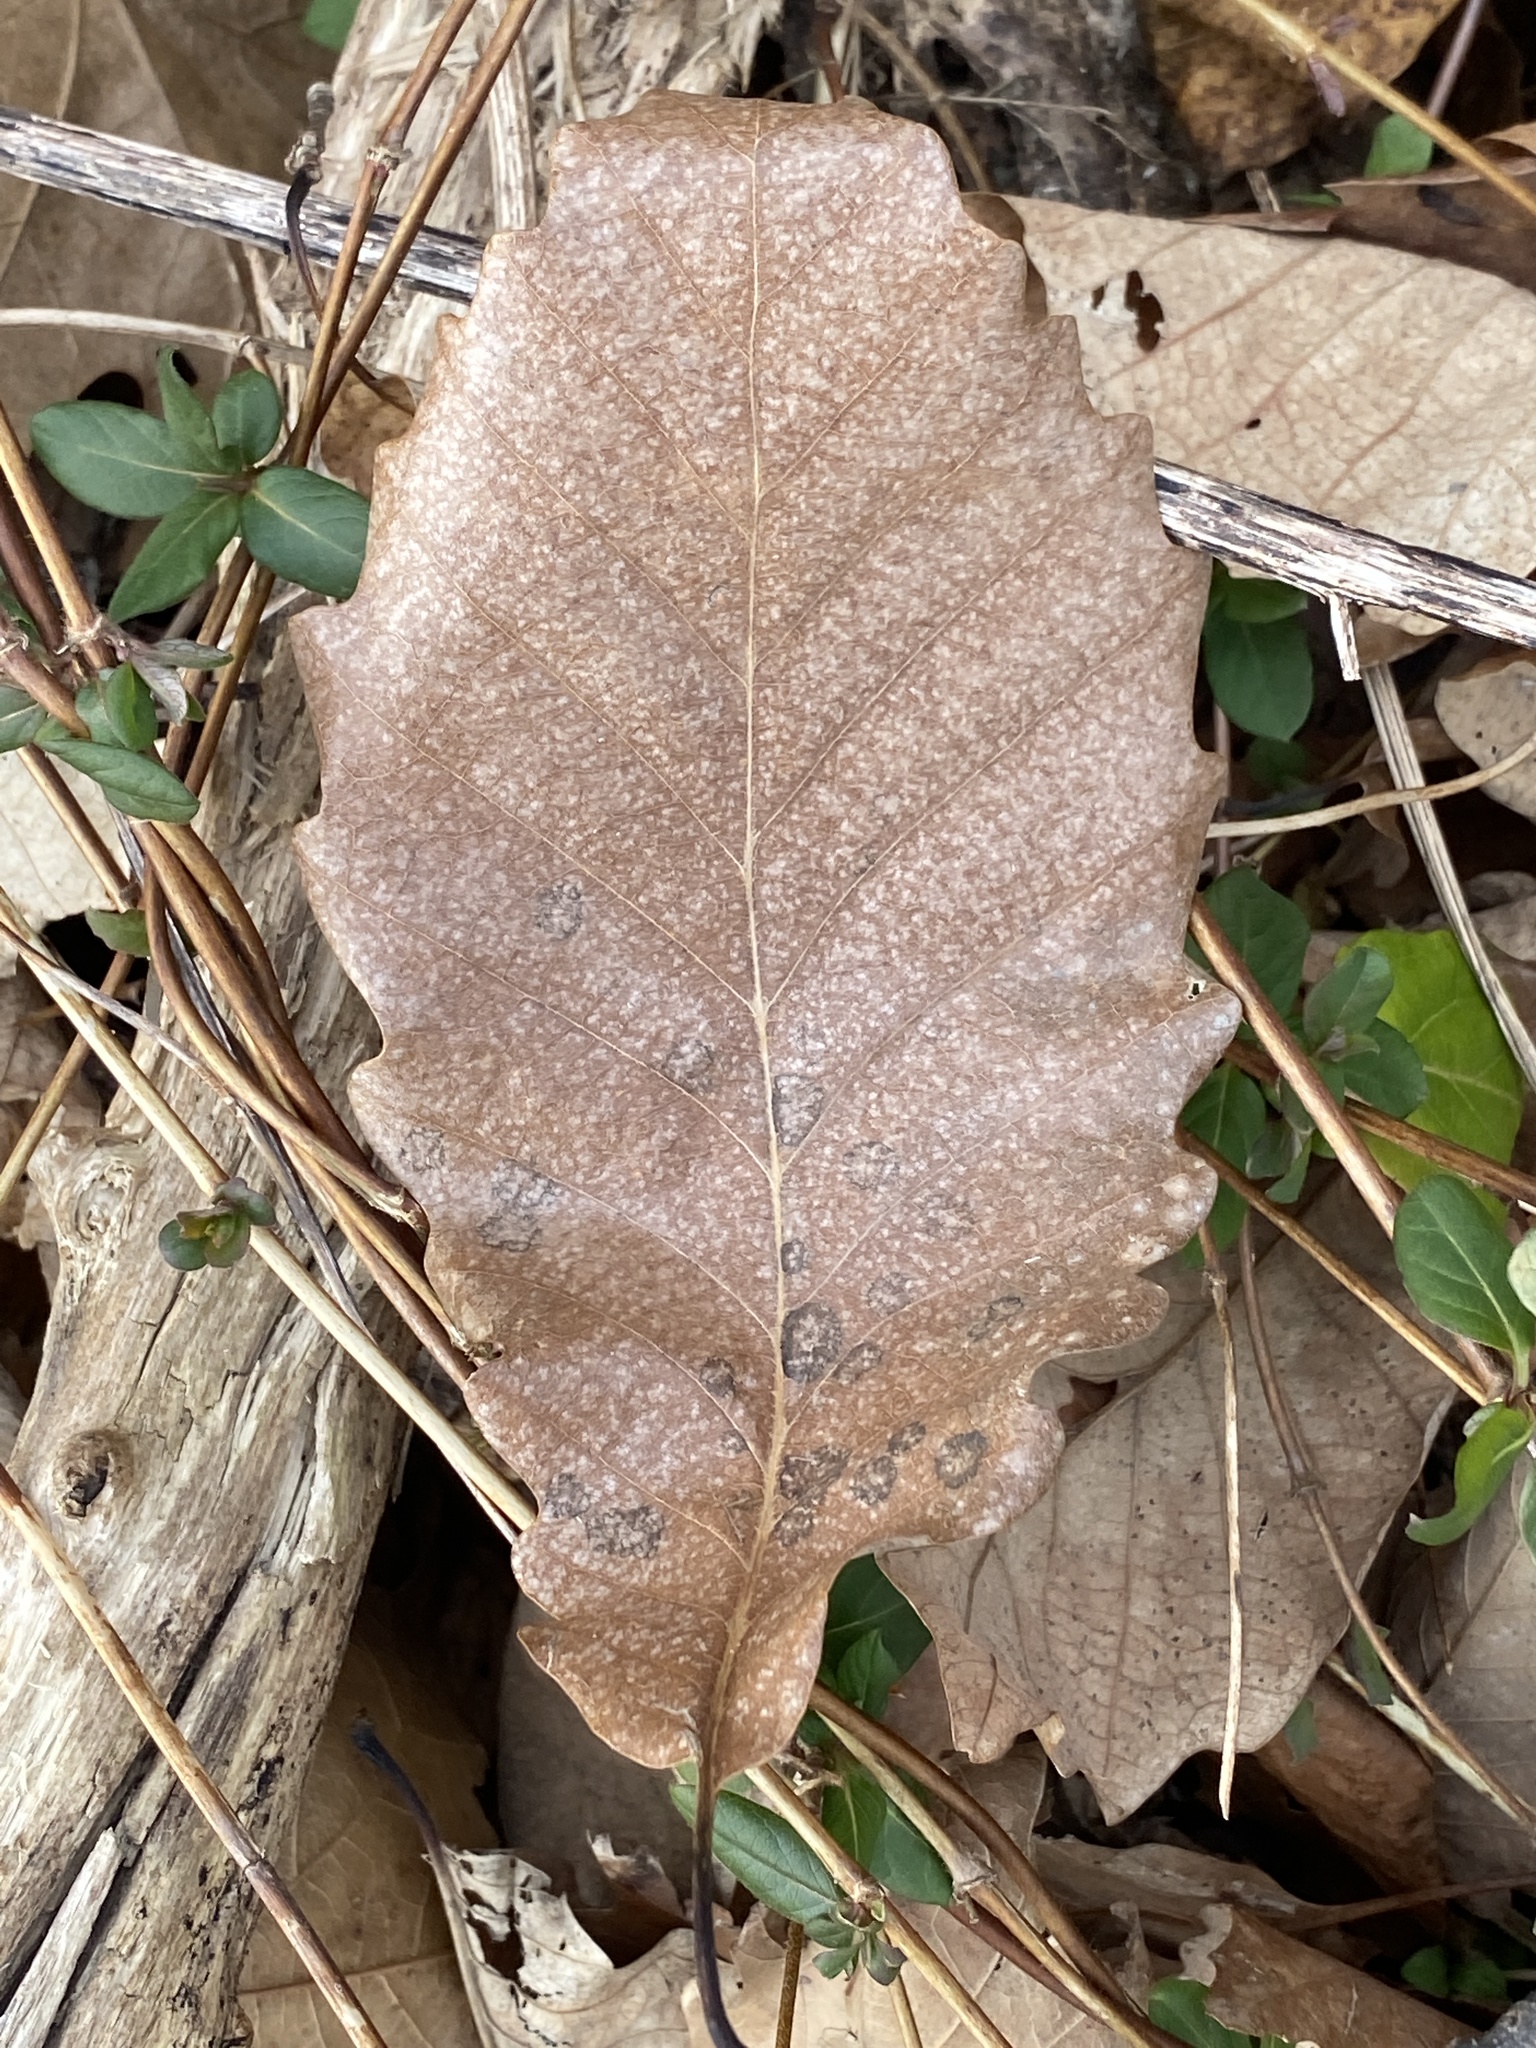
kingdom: Plantae
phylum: Tracheophyta
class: Magnoliopsida
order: Fagales
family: Fagaceae
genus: Quercus
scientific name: Quercus montana
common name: Chestnut oak
